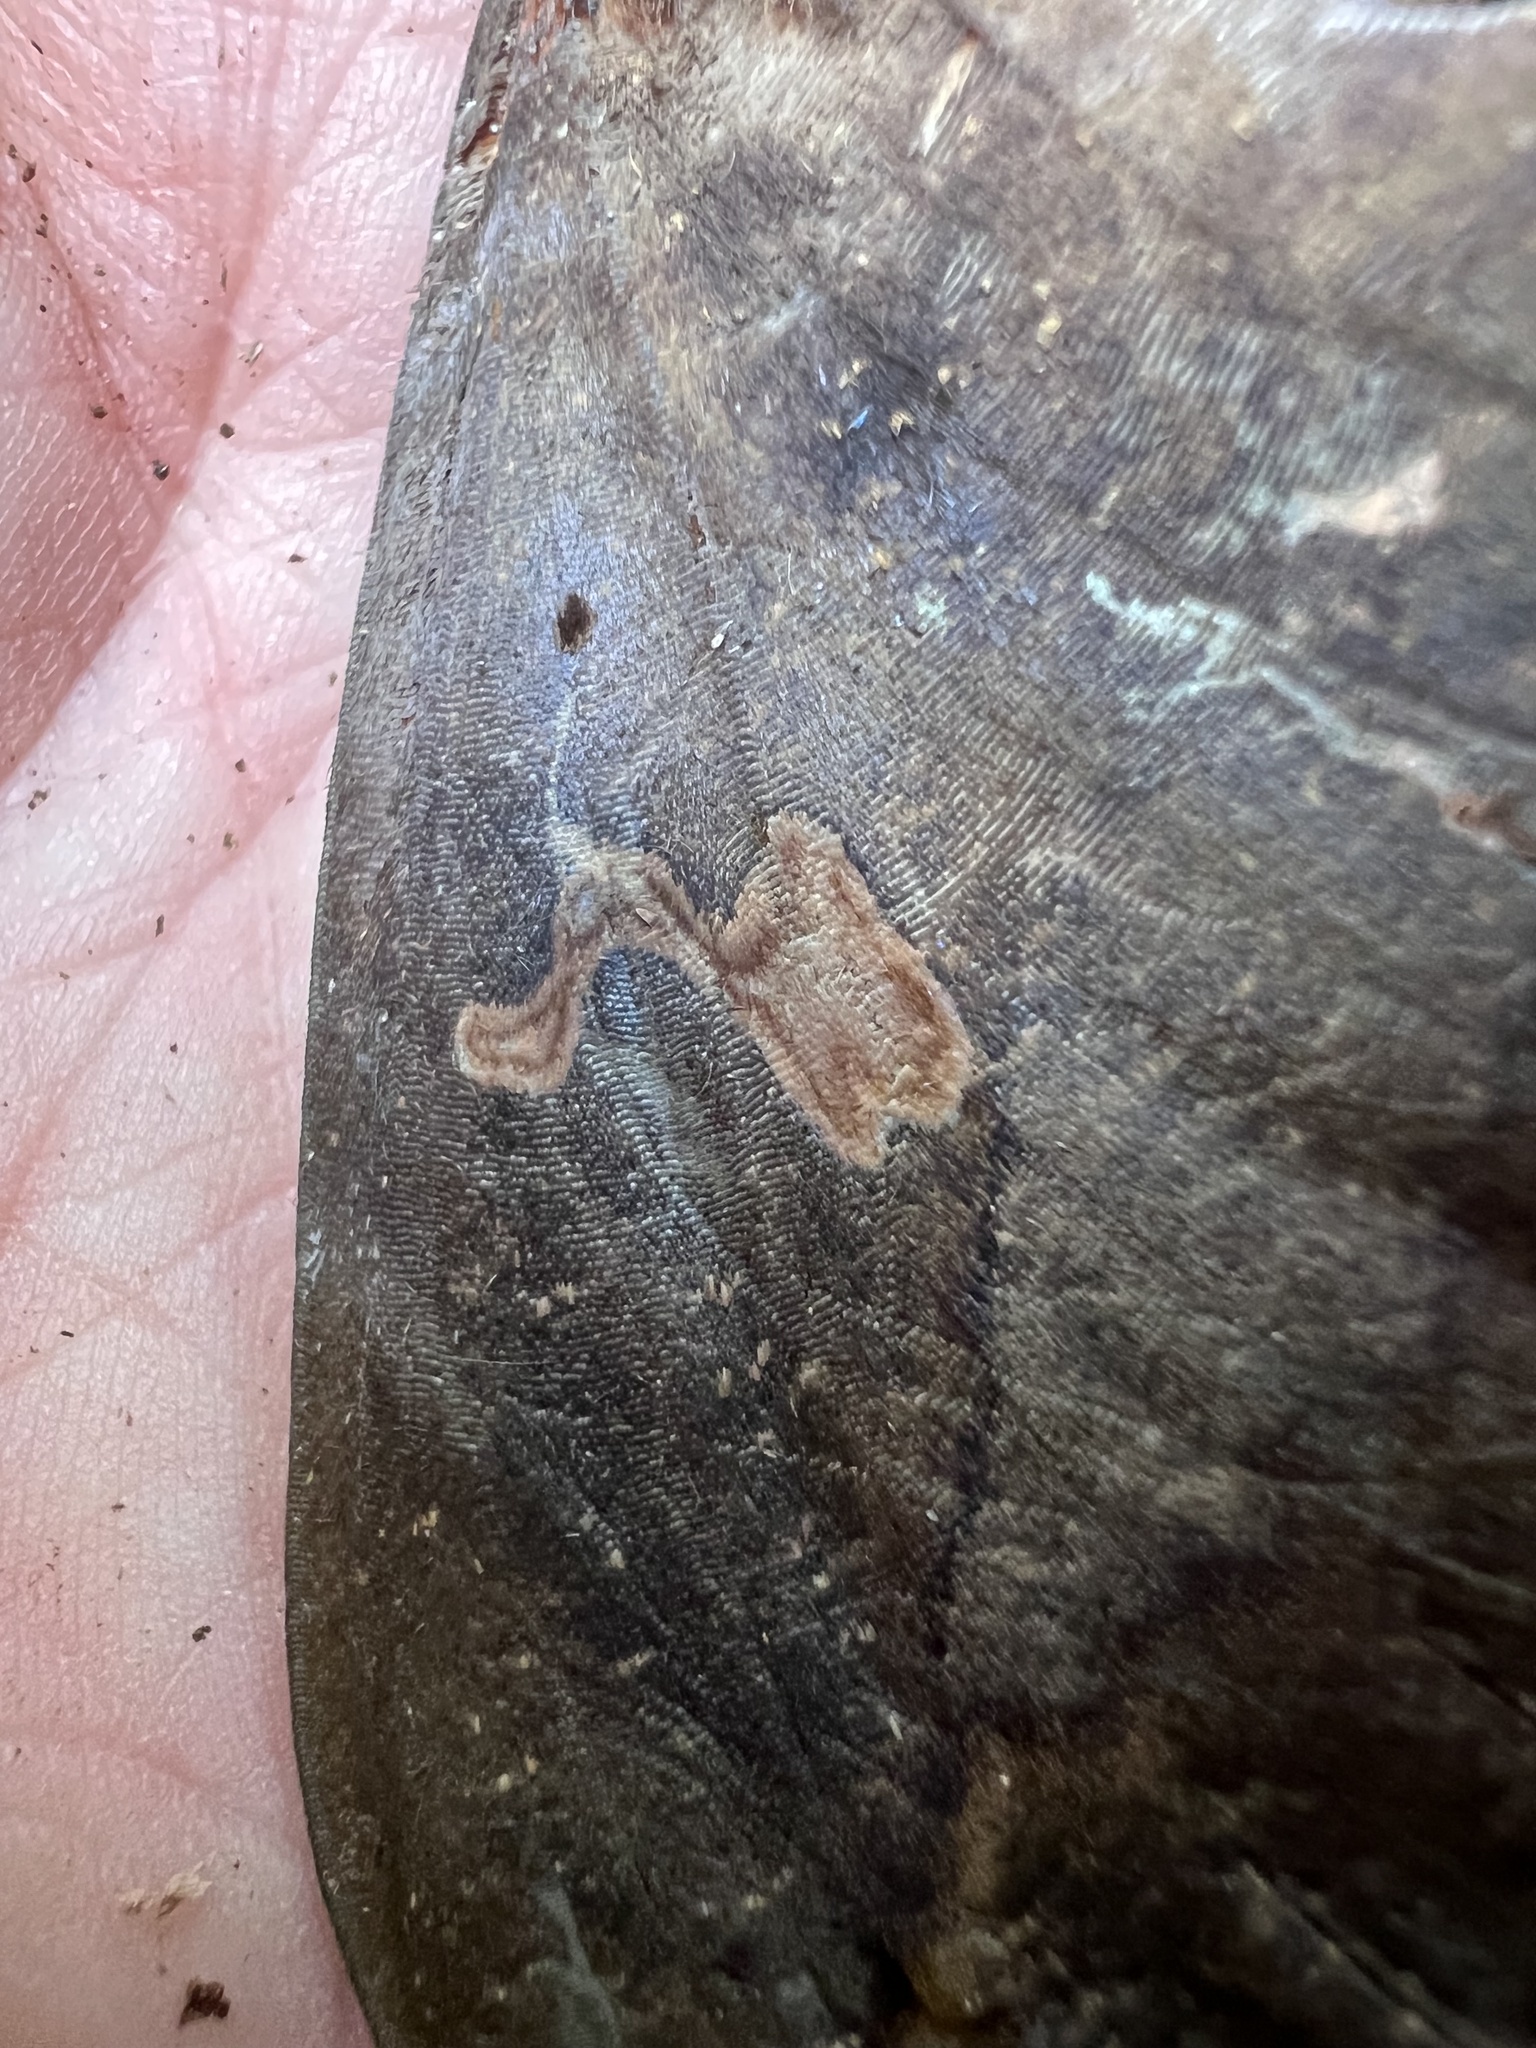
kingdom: Animalia
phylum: Arthropoda
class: Insecta
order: Lepidoptera
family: Erebidae
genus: Phyllodes
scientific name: Phyllodes imperialis
